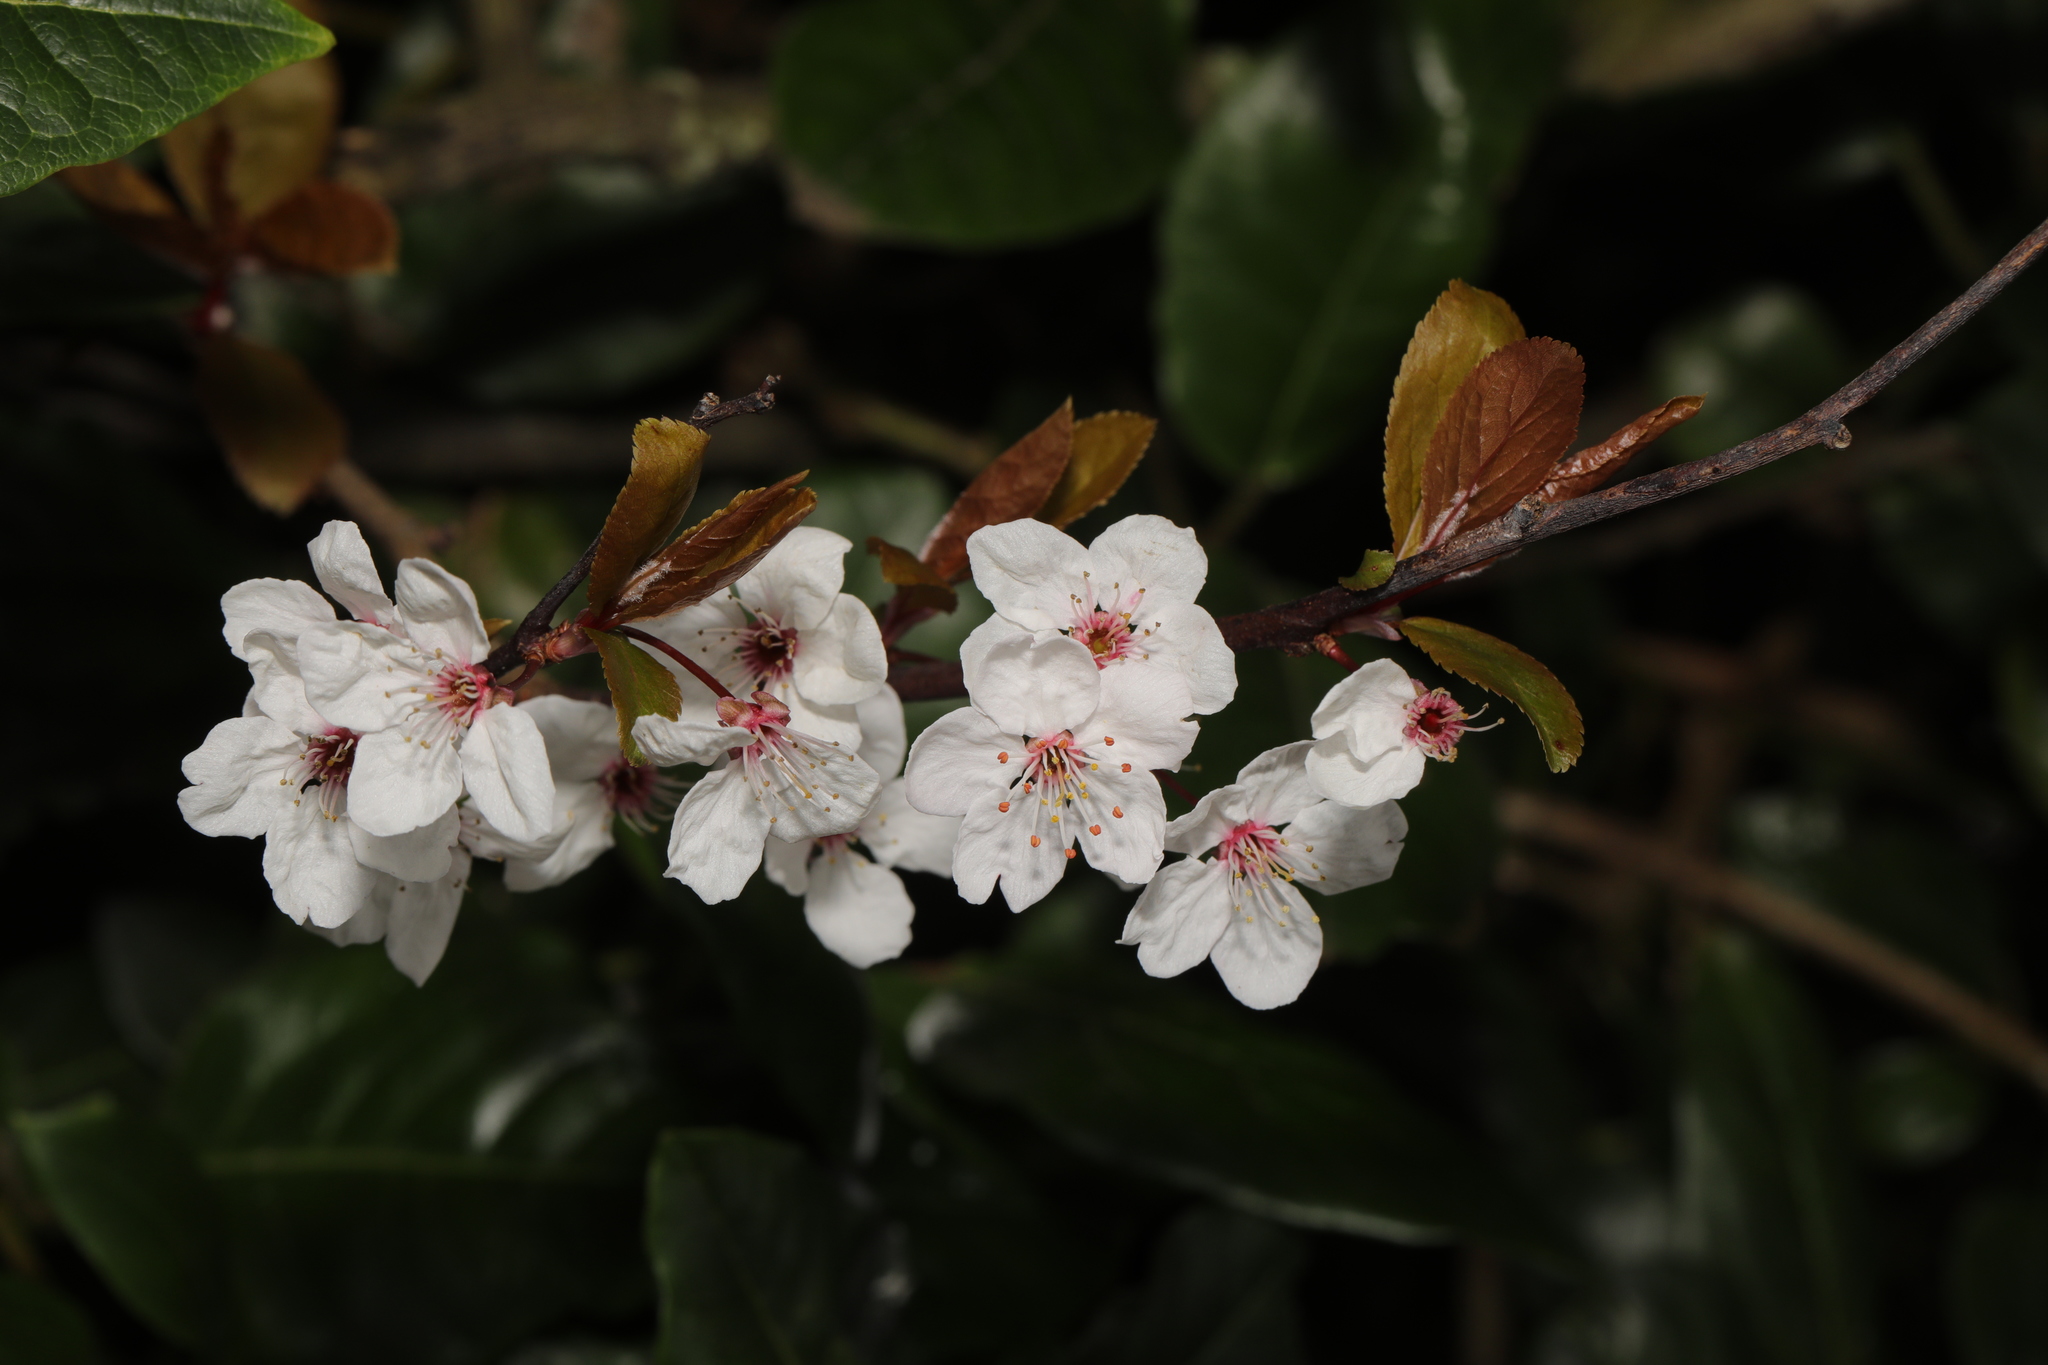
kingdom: Plantae
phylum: Tracheophyta
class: Magnoliopsida
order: Rosales
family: Rosaceae
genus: Prunus
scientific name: Prunus cerasifera
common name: Cherry plum
